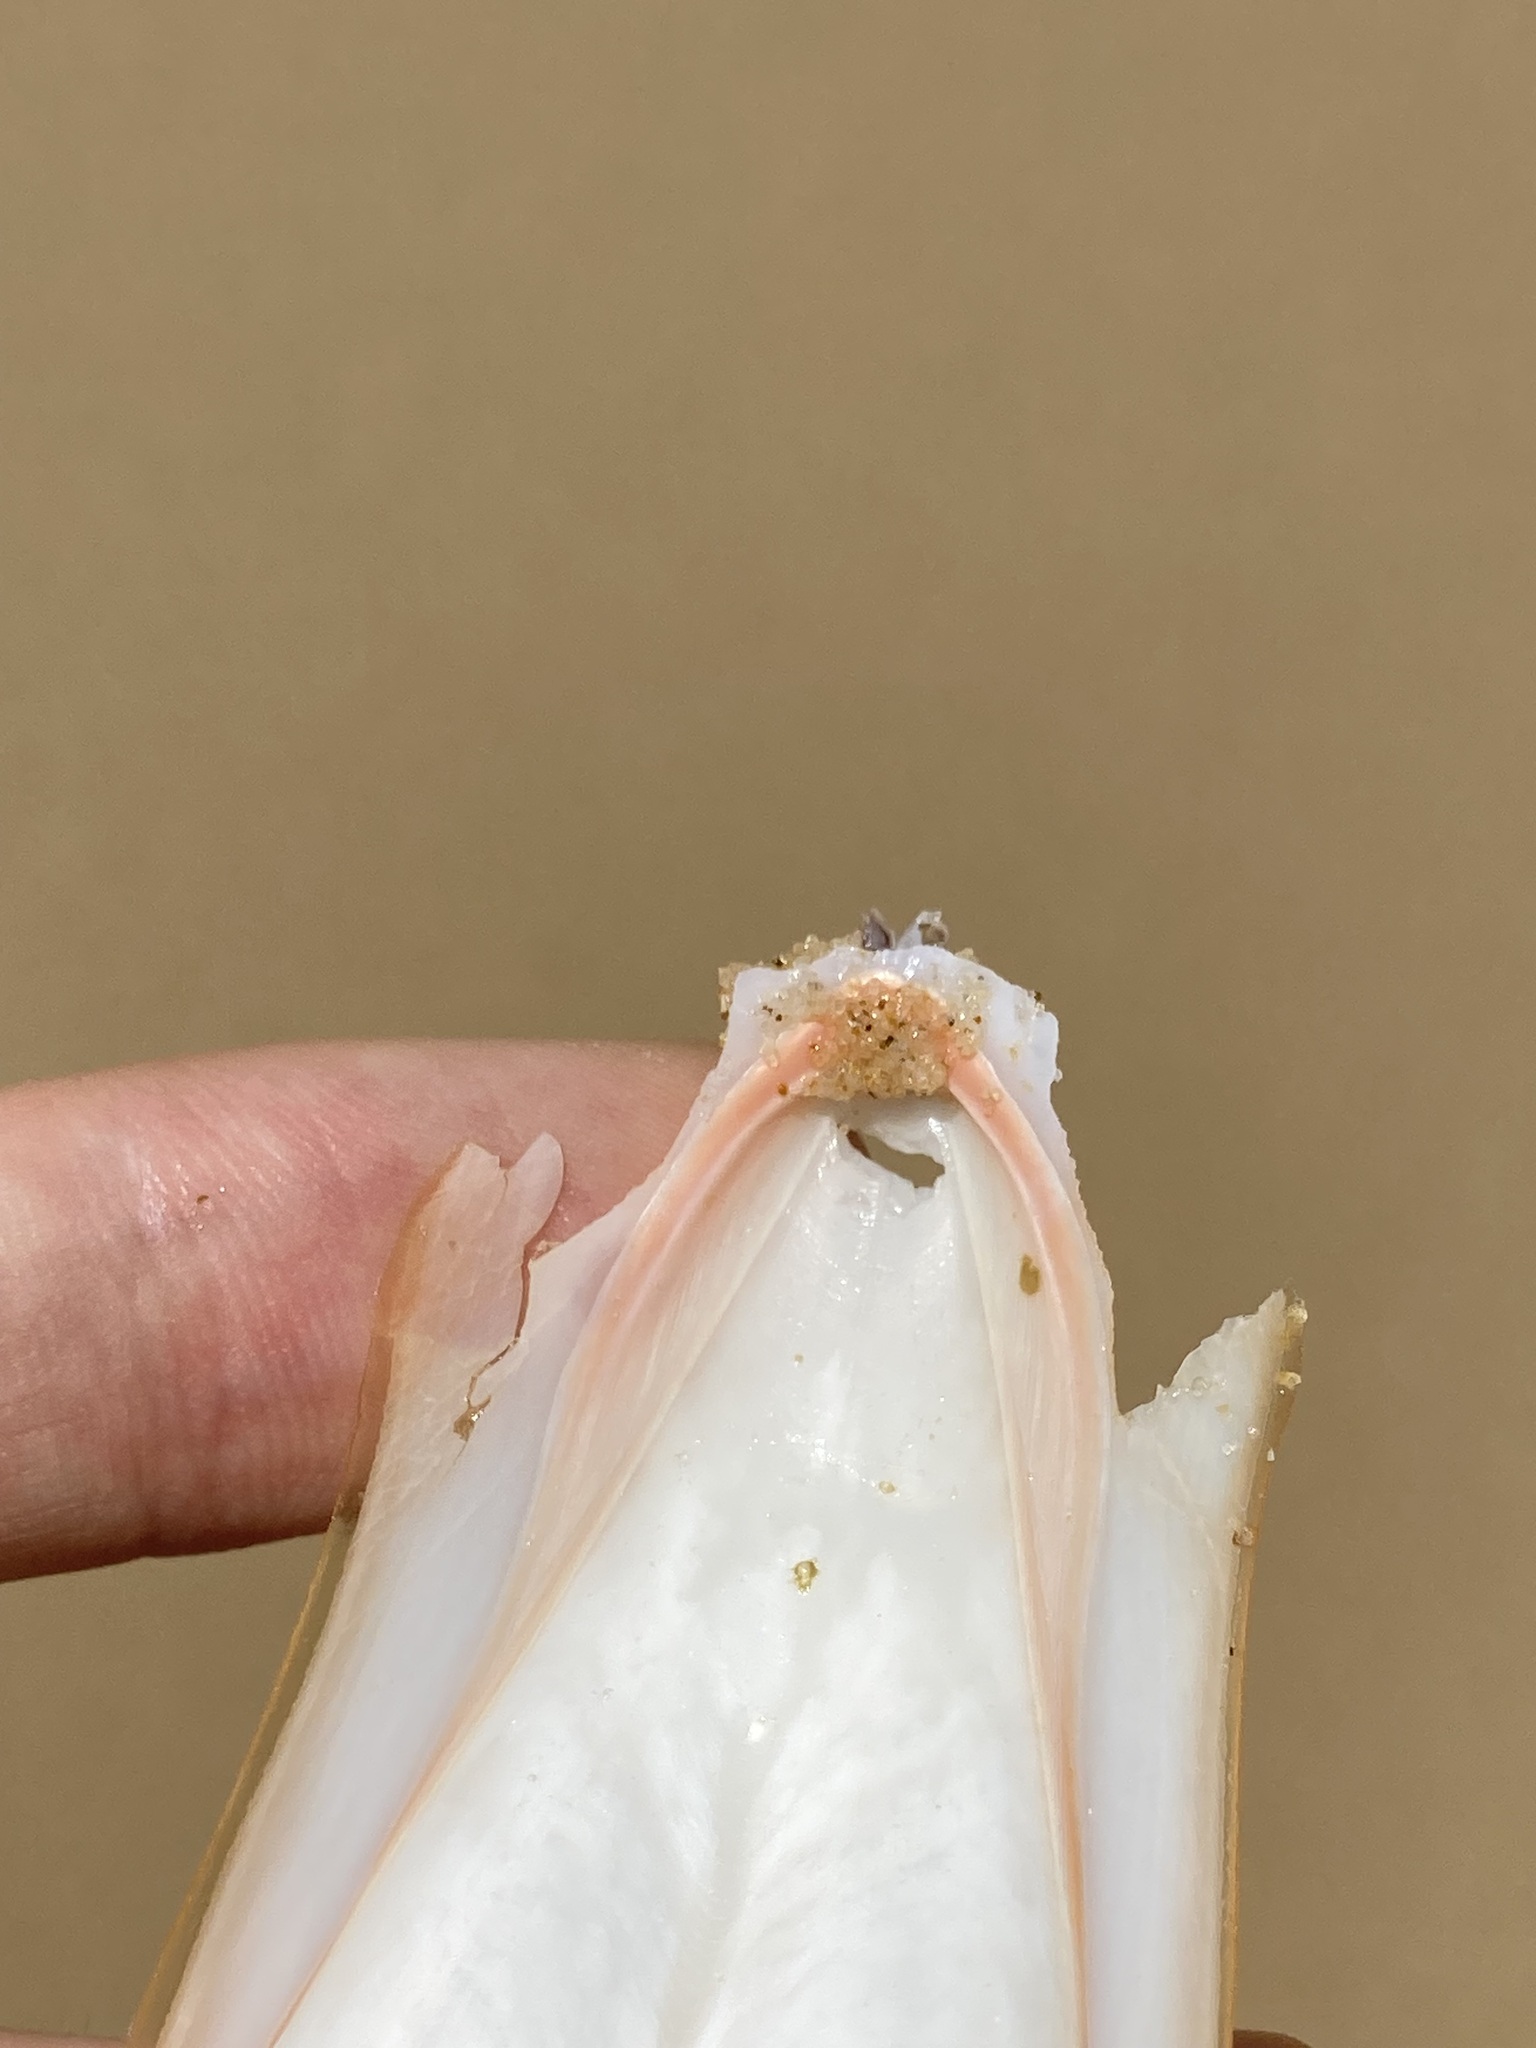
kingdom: Animalia
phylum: Mollusca
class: Cephalopoda
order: Sepiida
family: Sepiidae
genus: Ascarosepion
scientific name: Ascarosepion rozella
